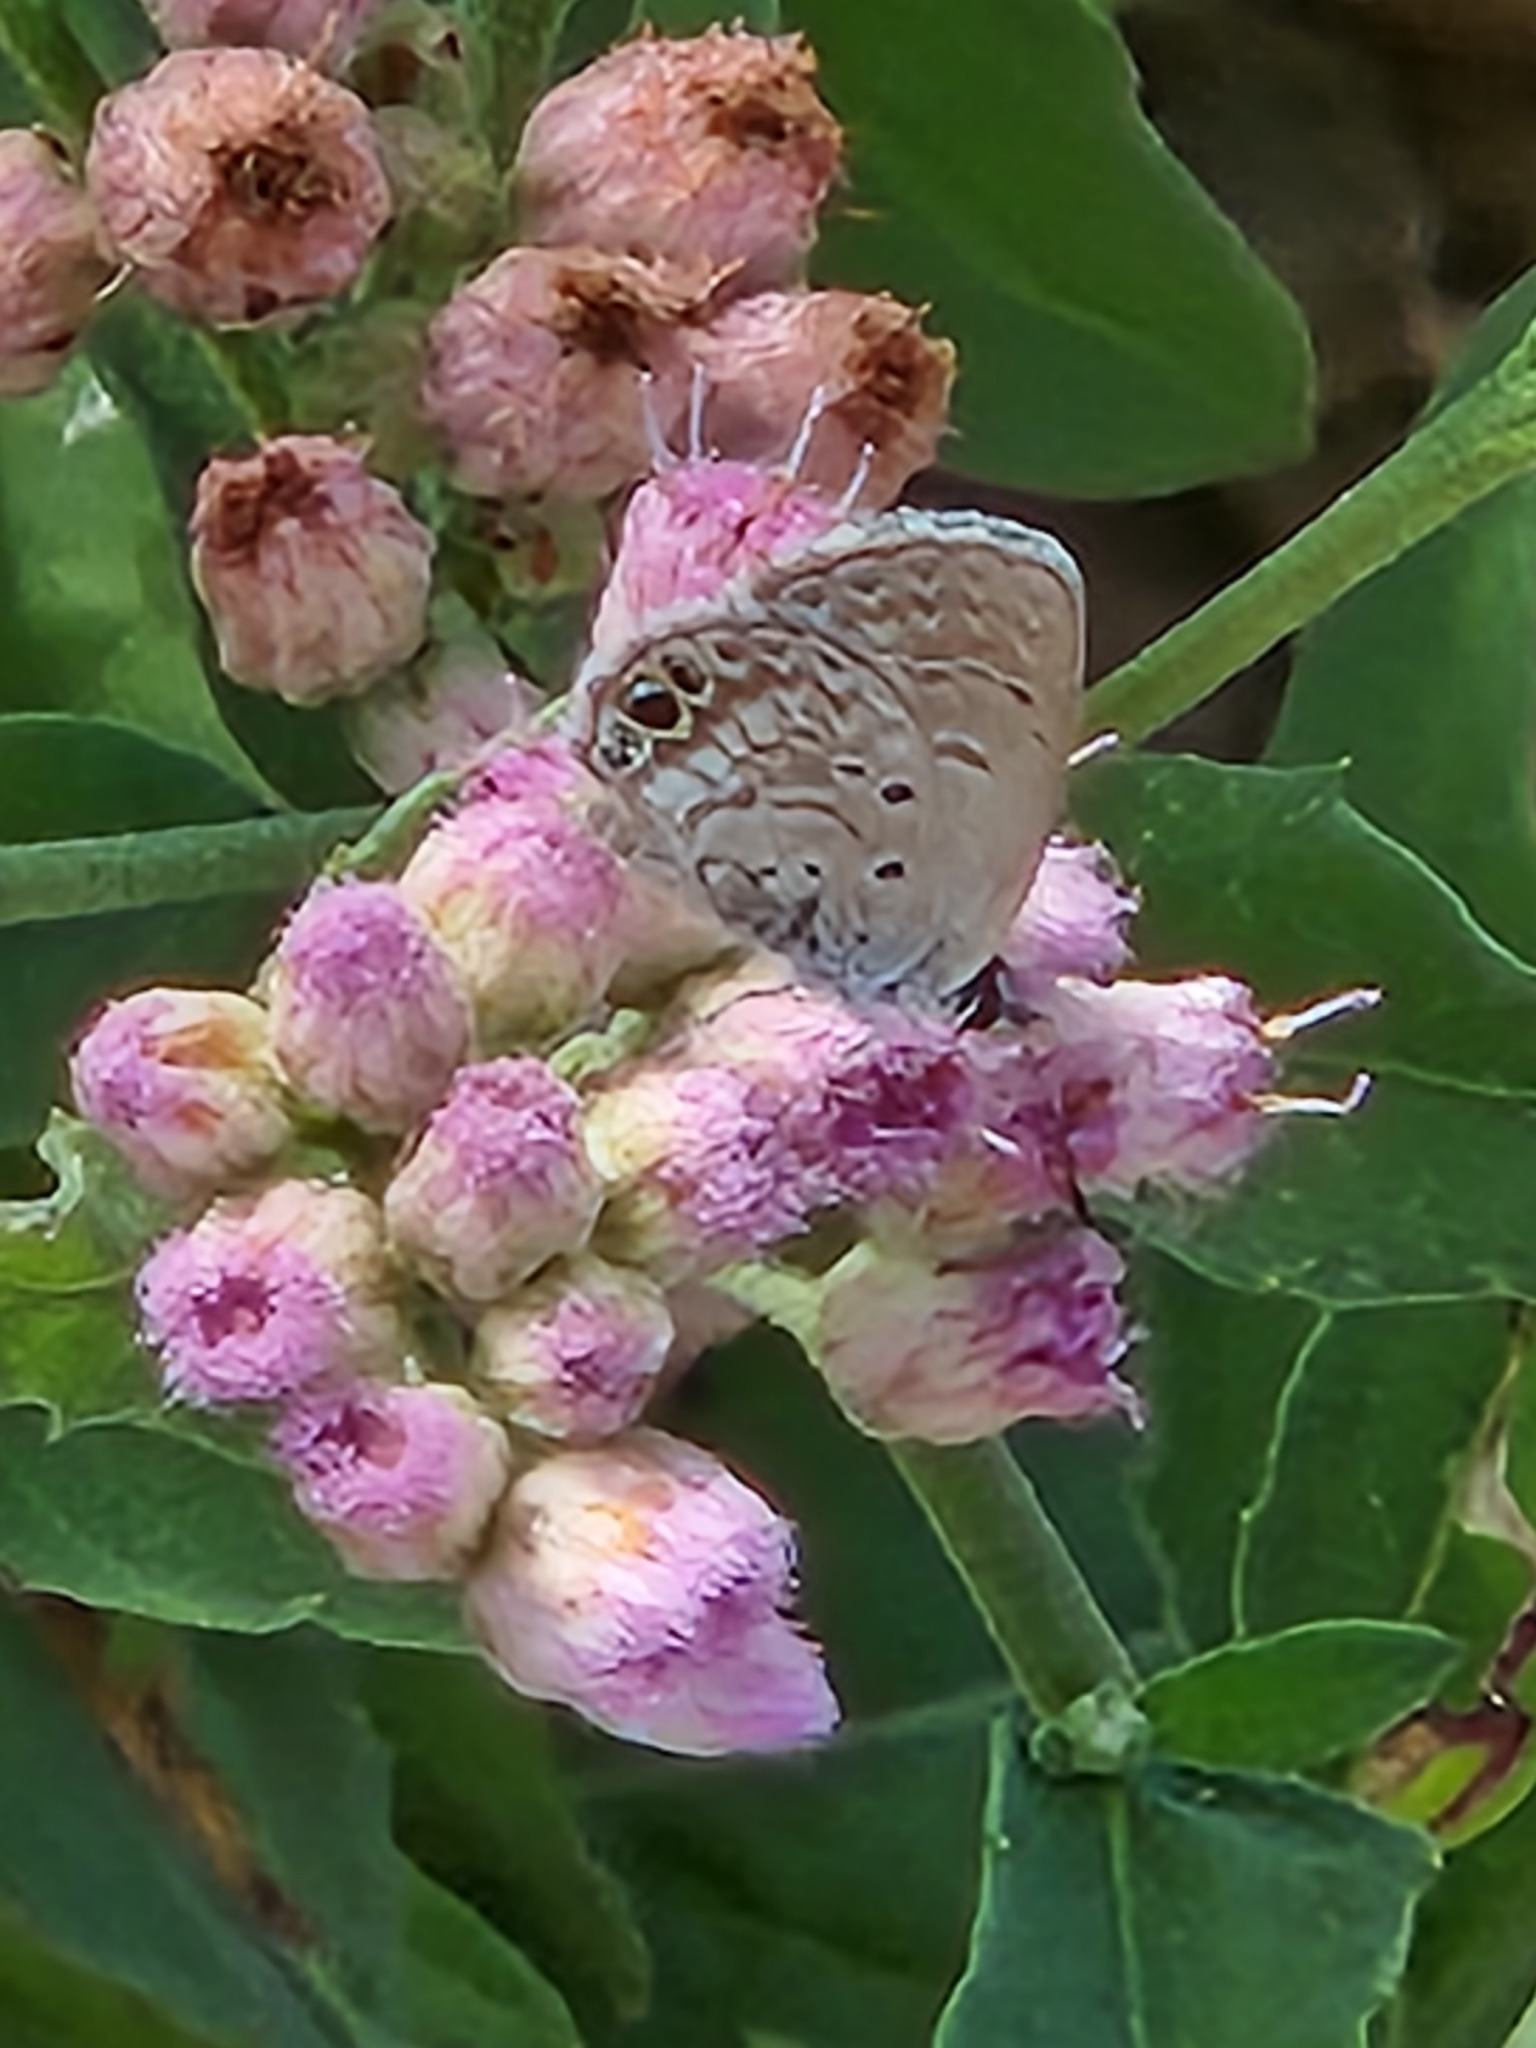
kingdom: Animalia
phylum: Arthropoda
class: Insecta
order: Lepidoptera
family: Lycaenidae
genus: Hemiargus
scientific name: Hemiargus ceraunus
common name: Ceraunus blue
